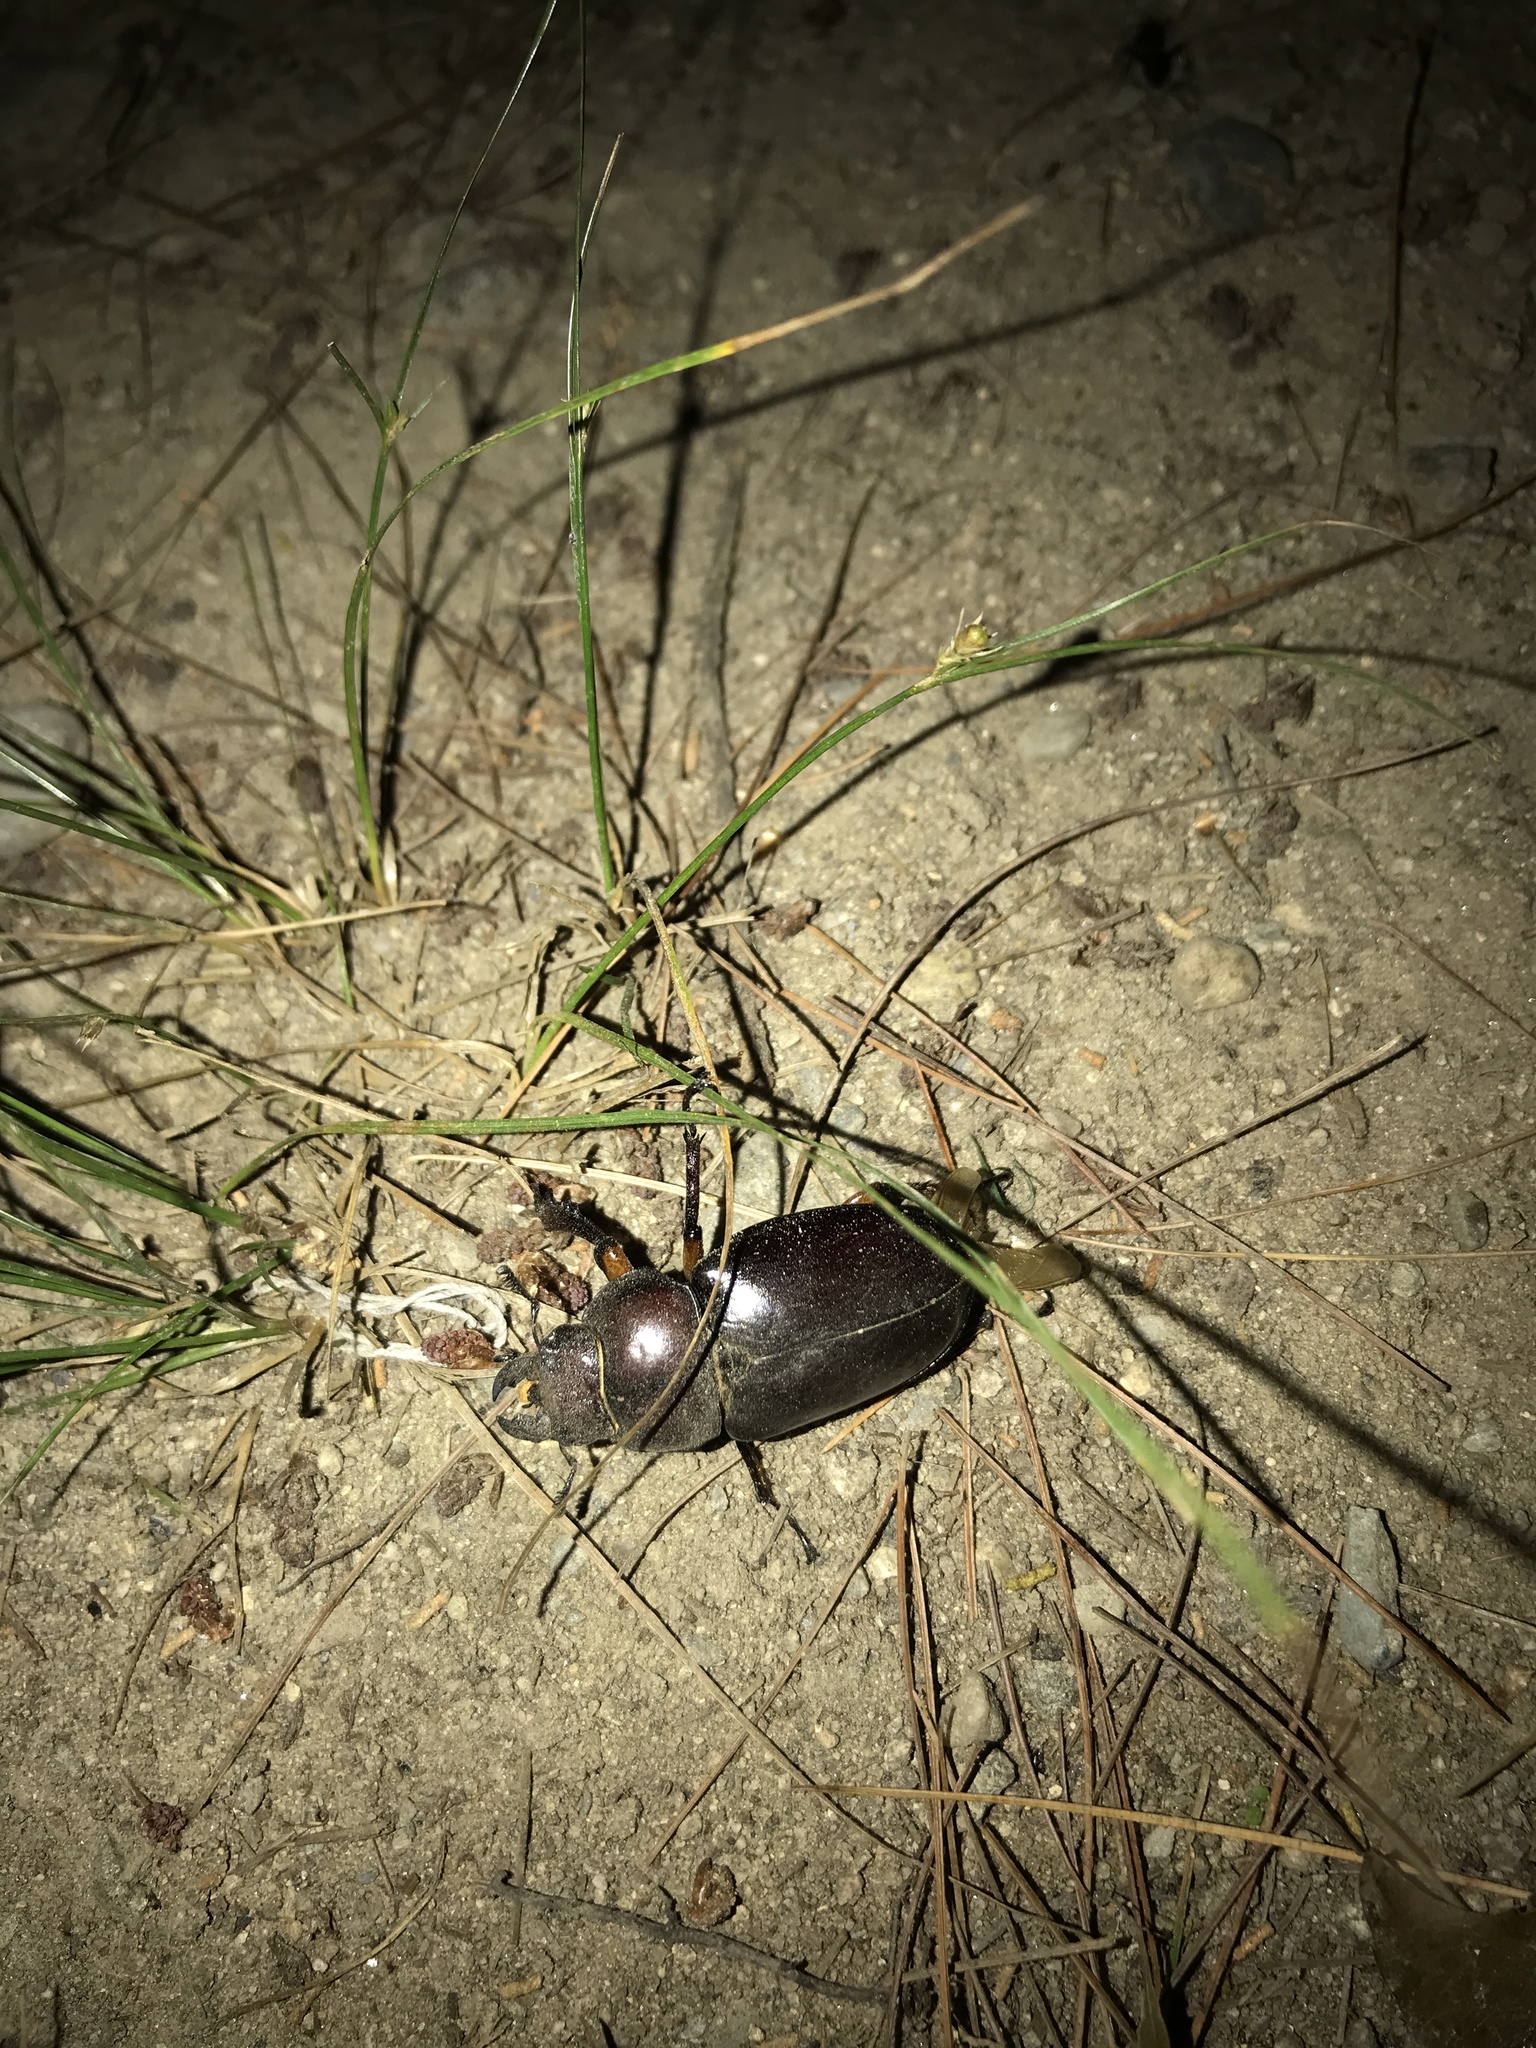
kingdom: Animalia
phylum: Arthropoda
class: Insecta
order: Coleoptera
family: Lucanidae
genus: Lucanus
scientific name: Lucanus capreolus
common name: Stag beetle
